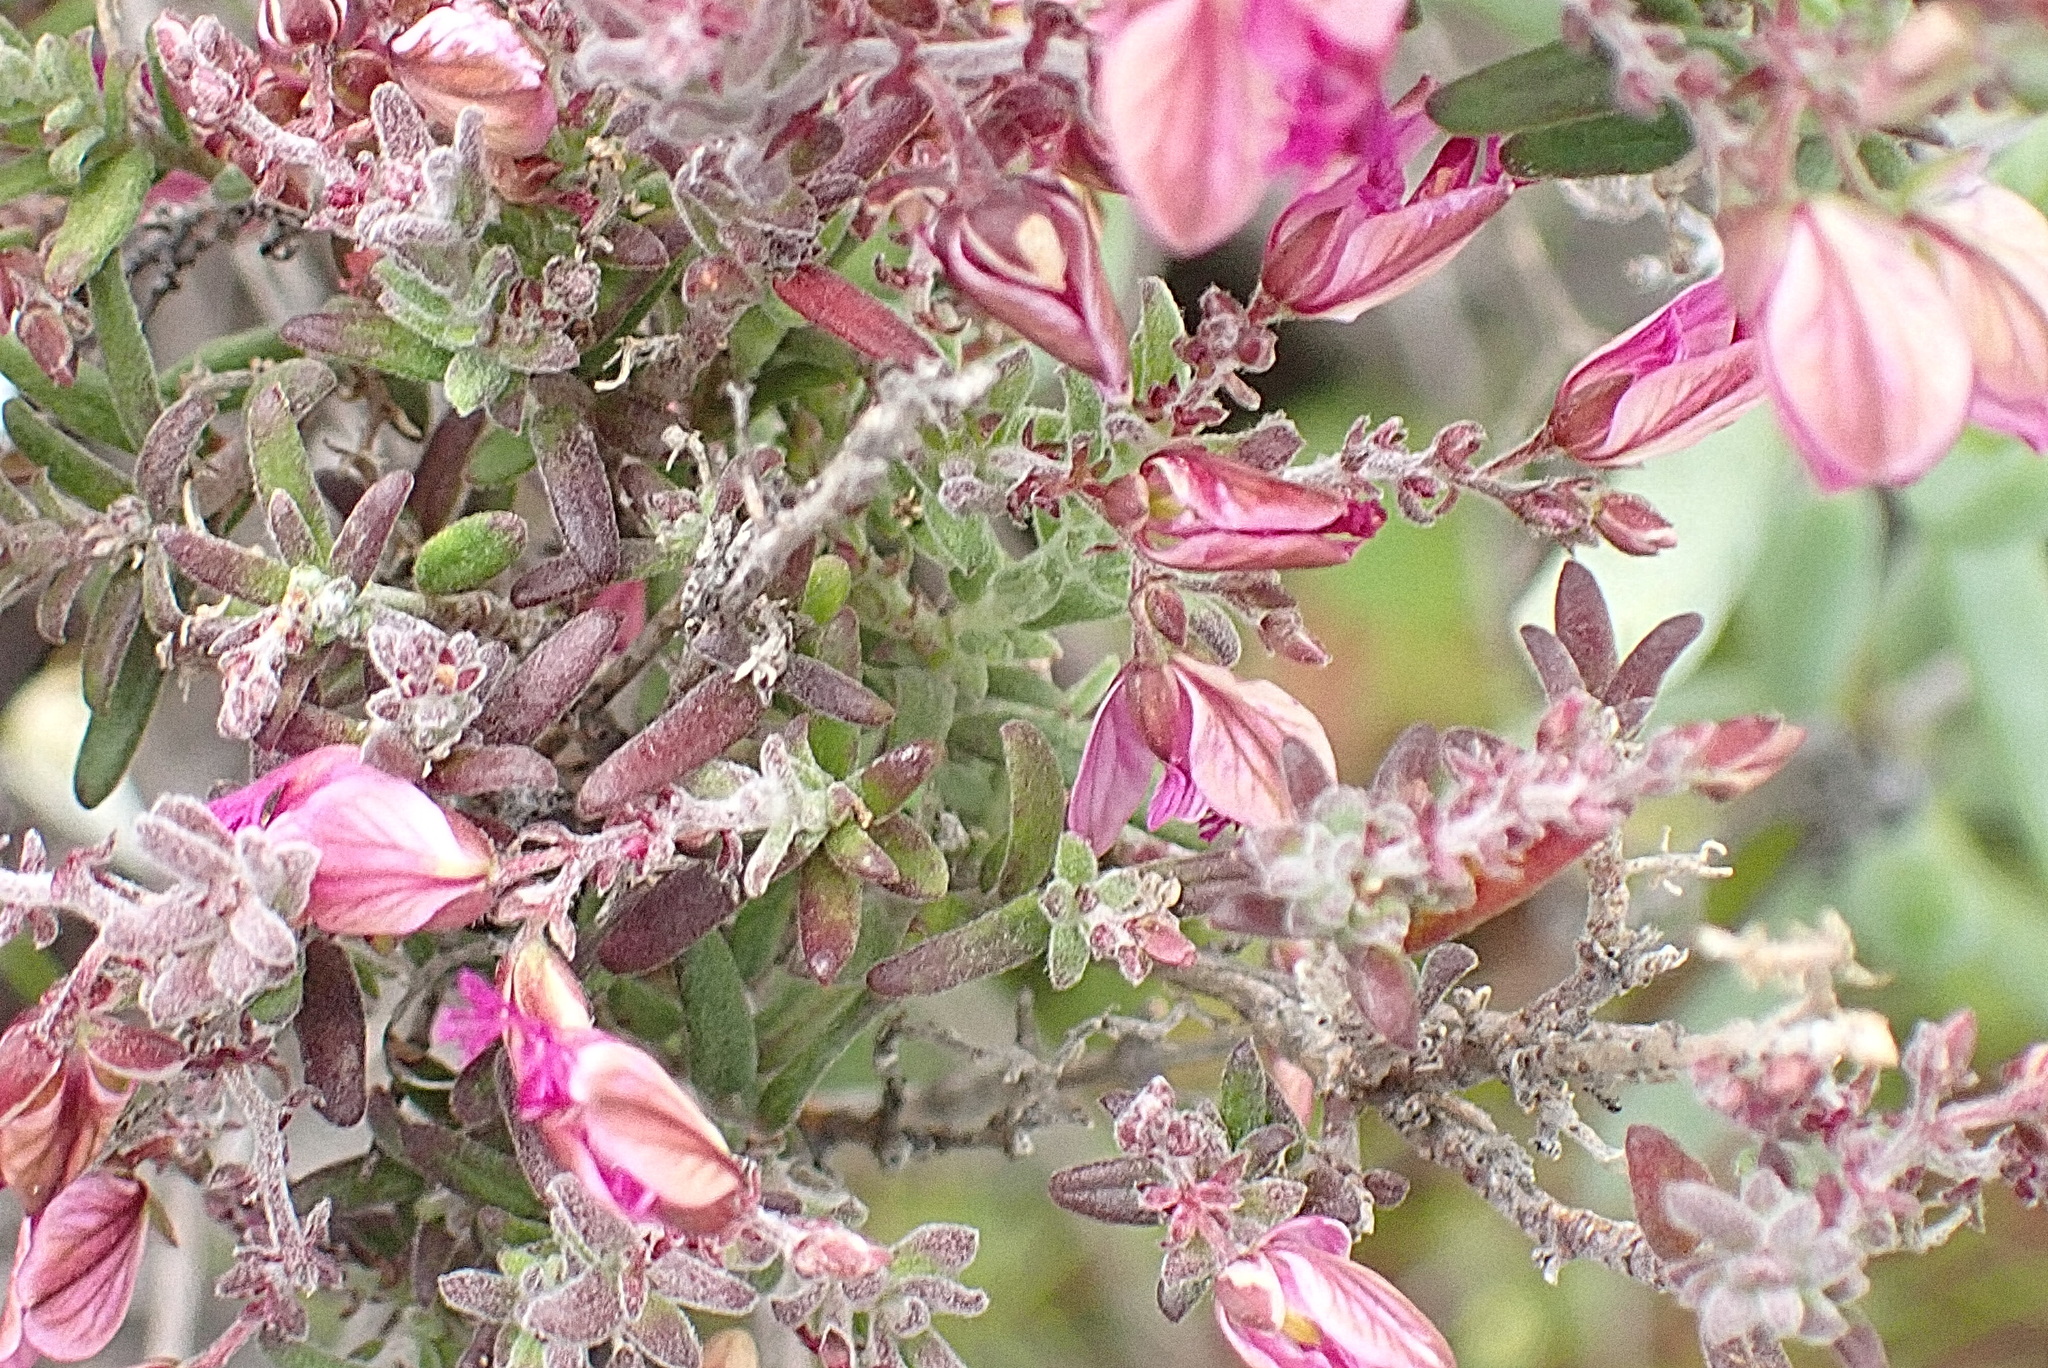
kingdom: Plantae
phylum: Tracheophyta
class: Magnoliopsida
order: Fabales
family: Polygalaceae
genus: Polygala
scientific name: Polygala scabra
